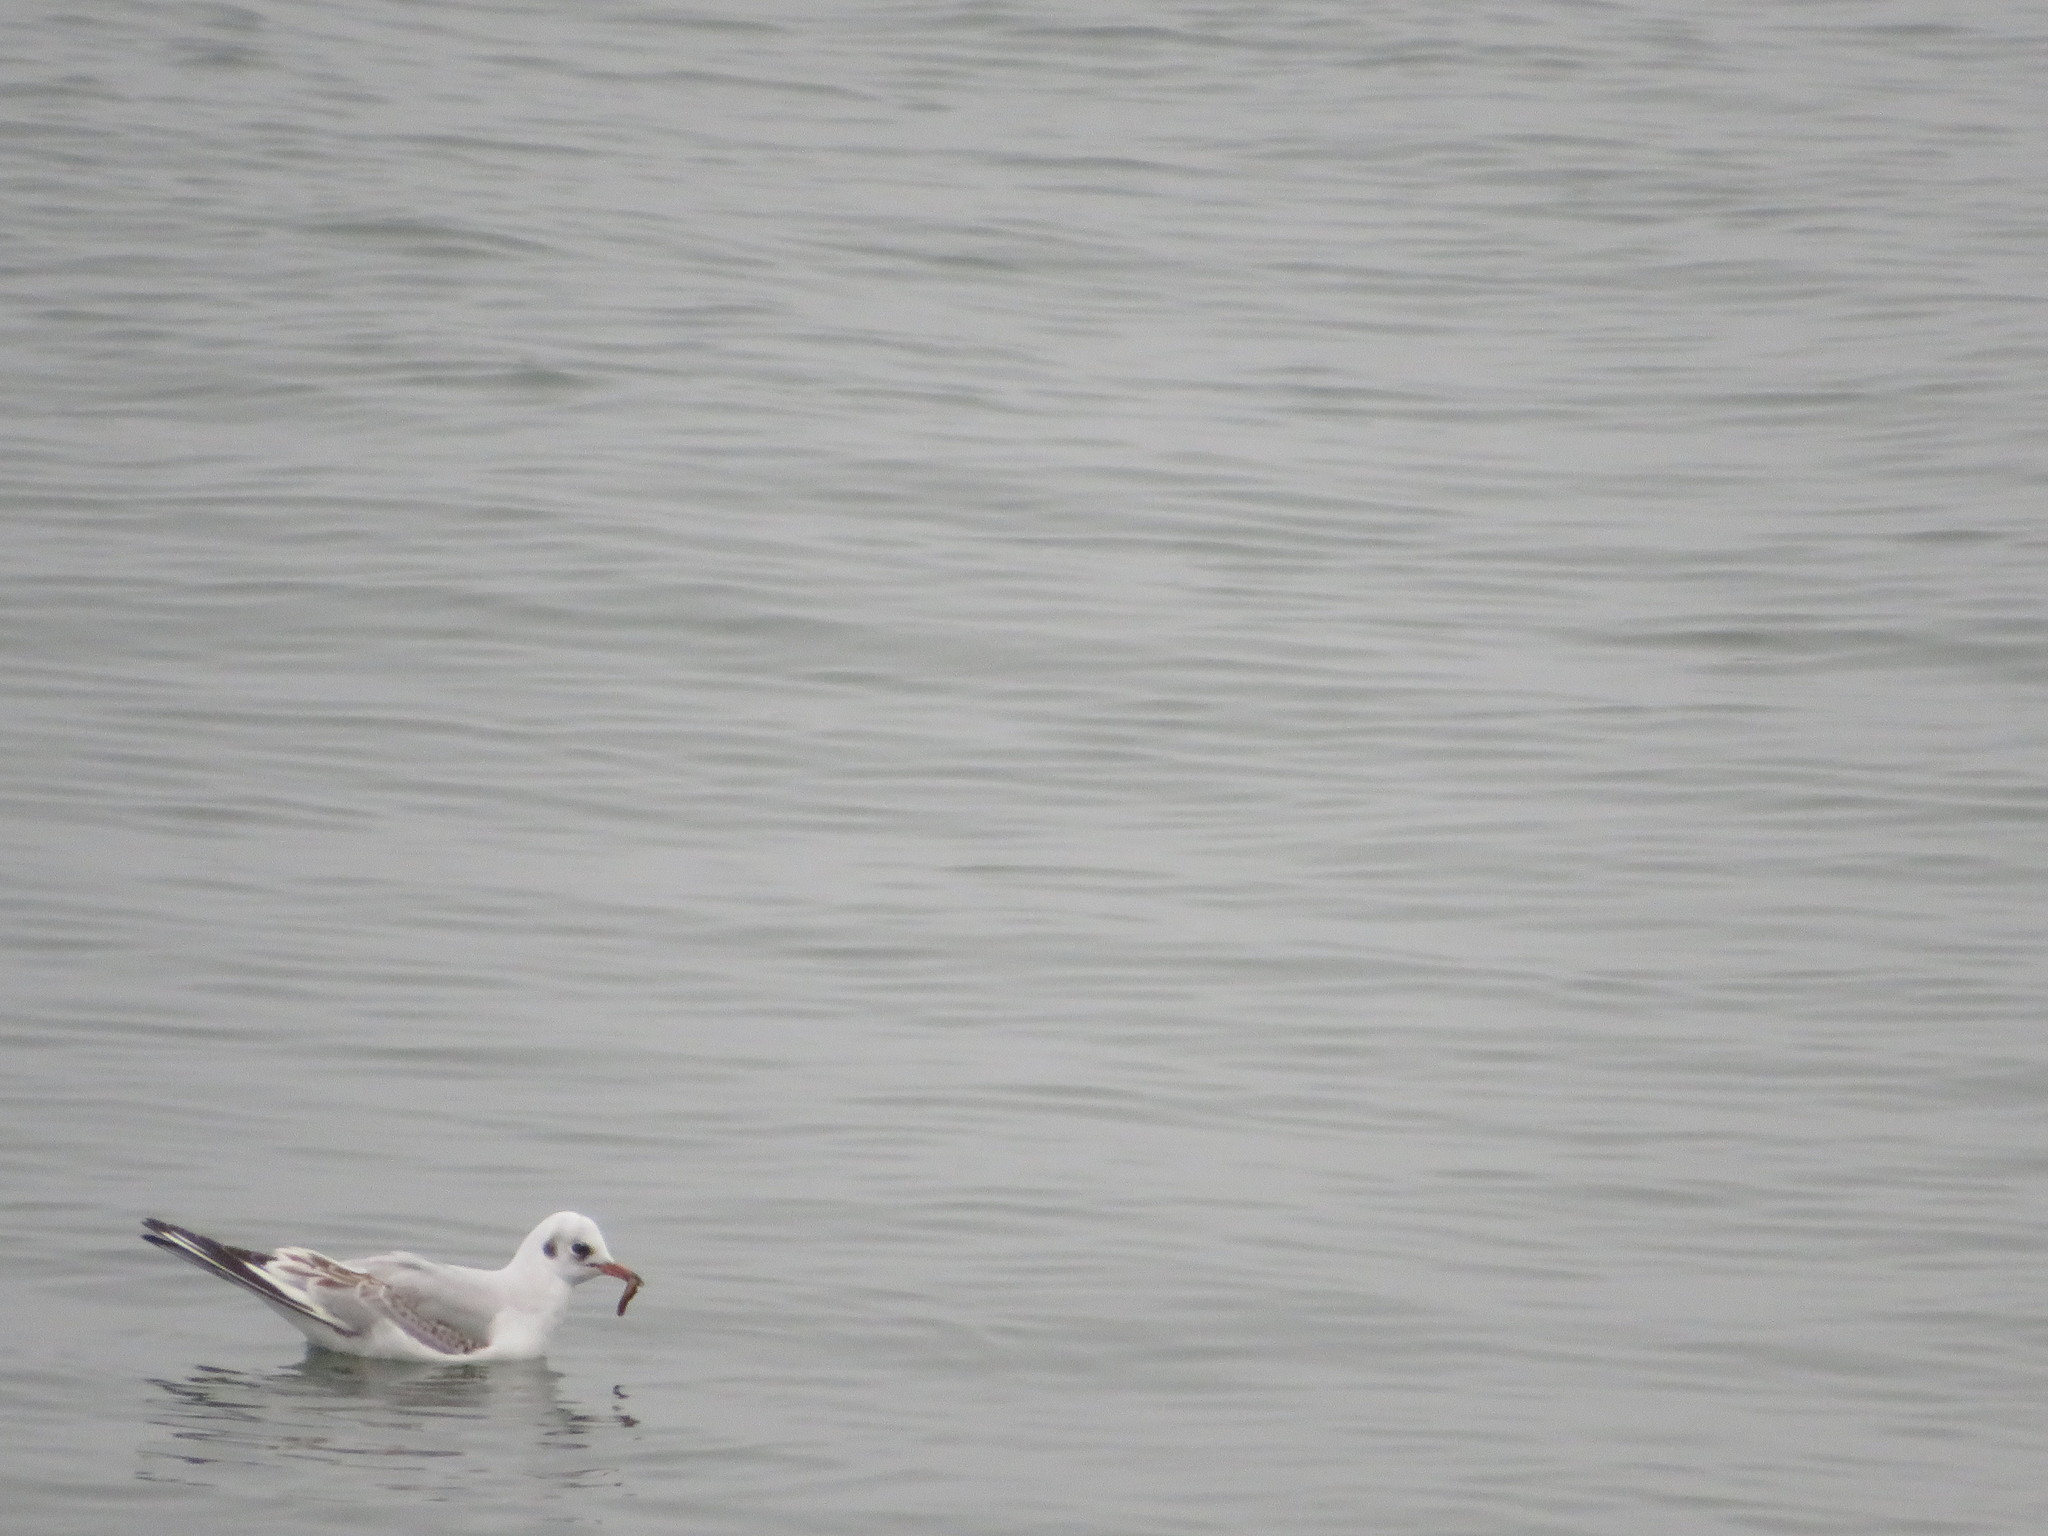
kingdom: Animalia
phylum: Chordata
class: Aves
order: Charadriiformes
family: Laridae
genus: Chroicocephalus
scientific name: Chroicocephalus ridibundus
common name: Black-headed gull
